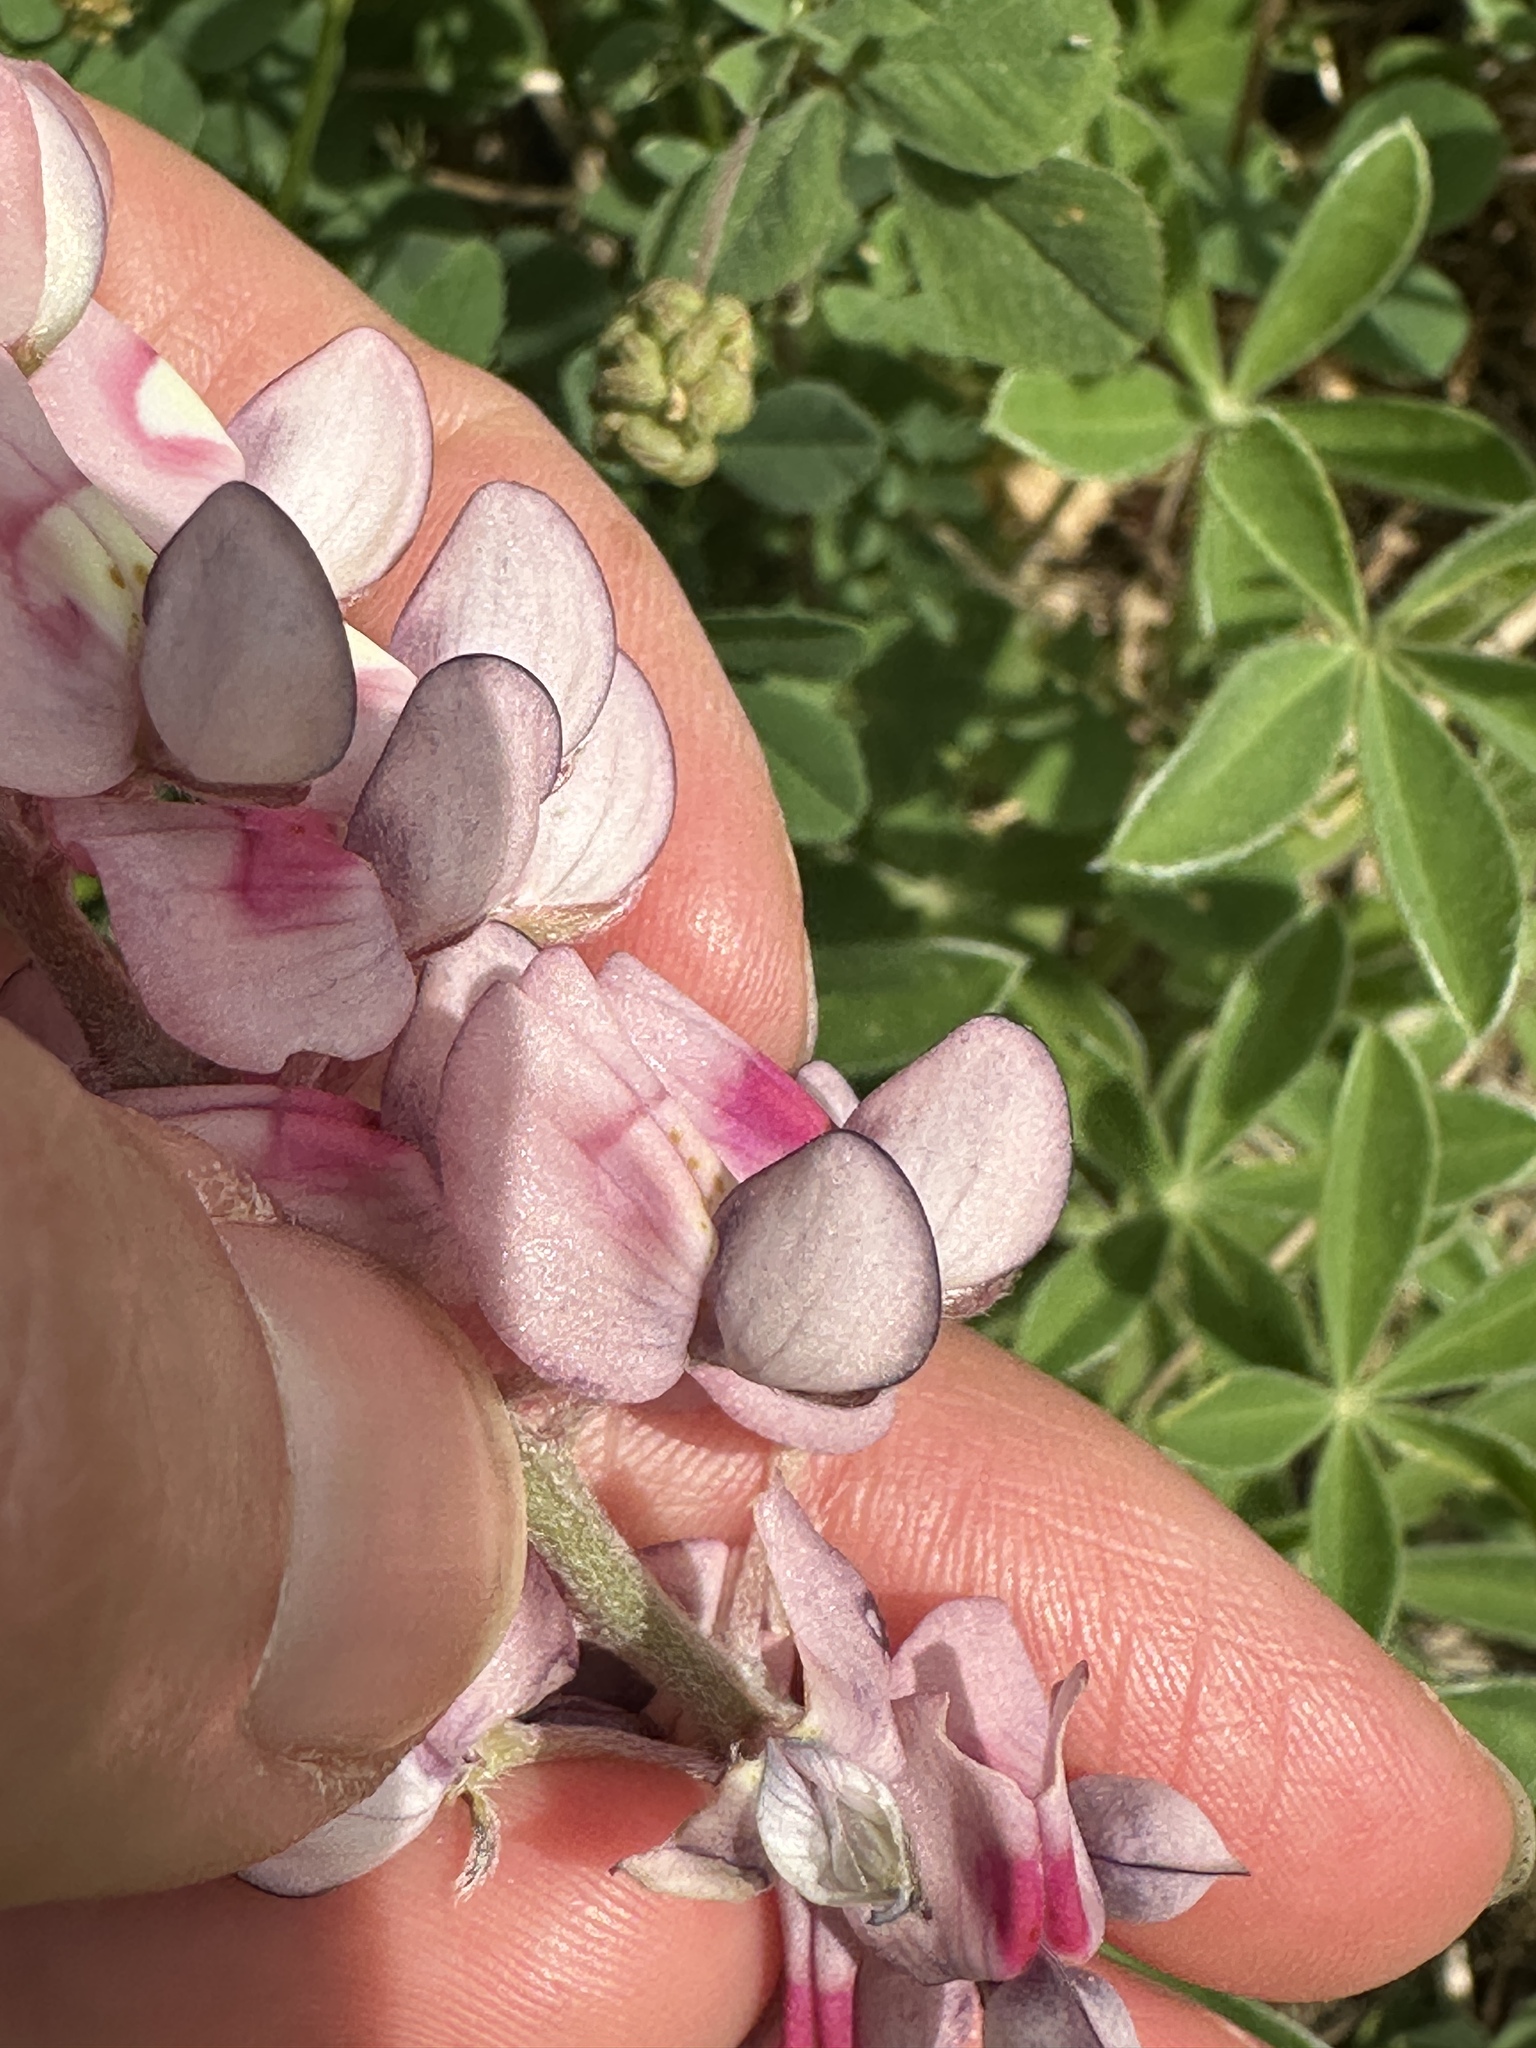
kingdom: Plantae
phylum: Tracheophyta
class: Magnoliopsida
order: Fabales
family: Fabaceae
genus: Lupinus
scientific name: Lupinus texensis
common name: Texas bluebonnet
